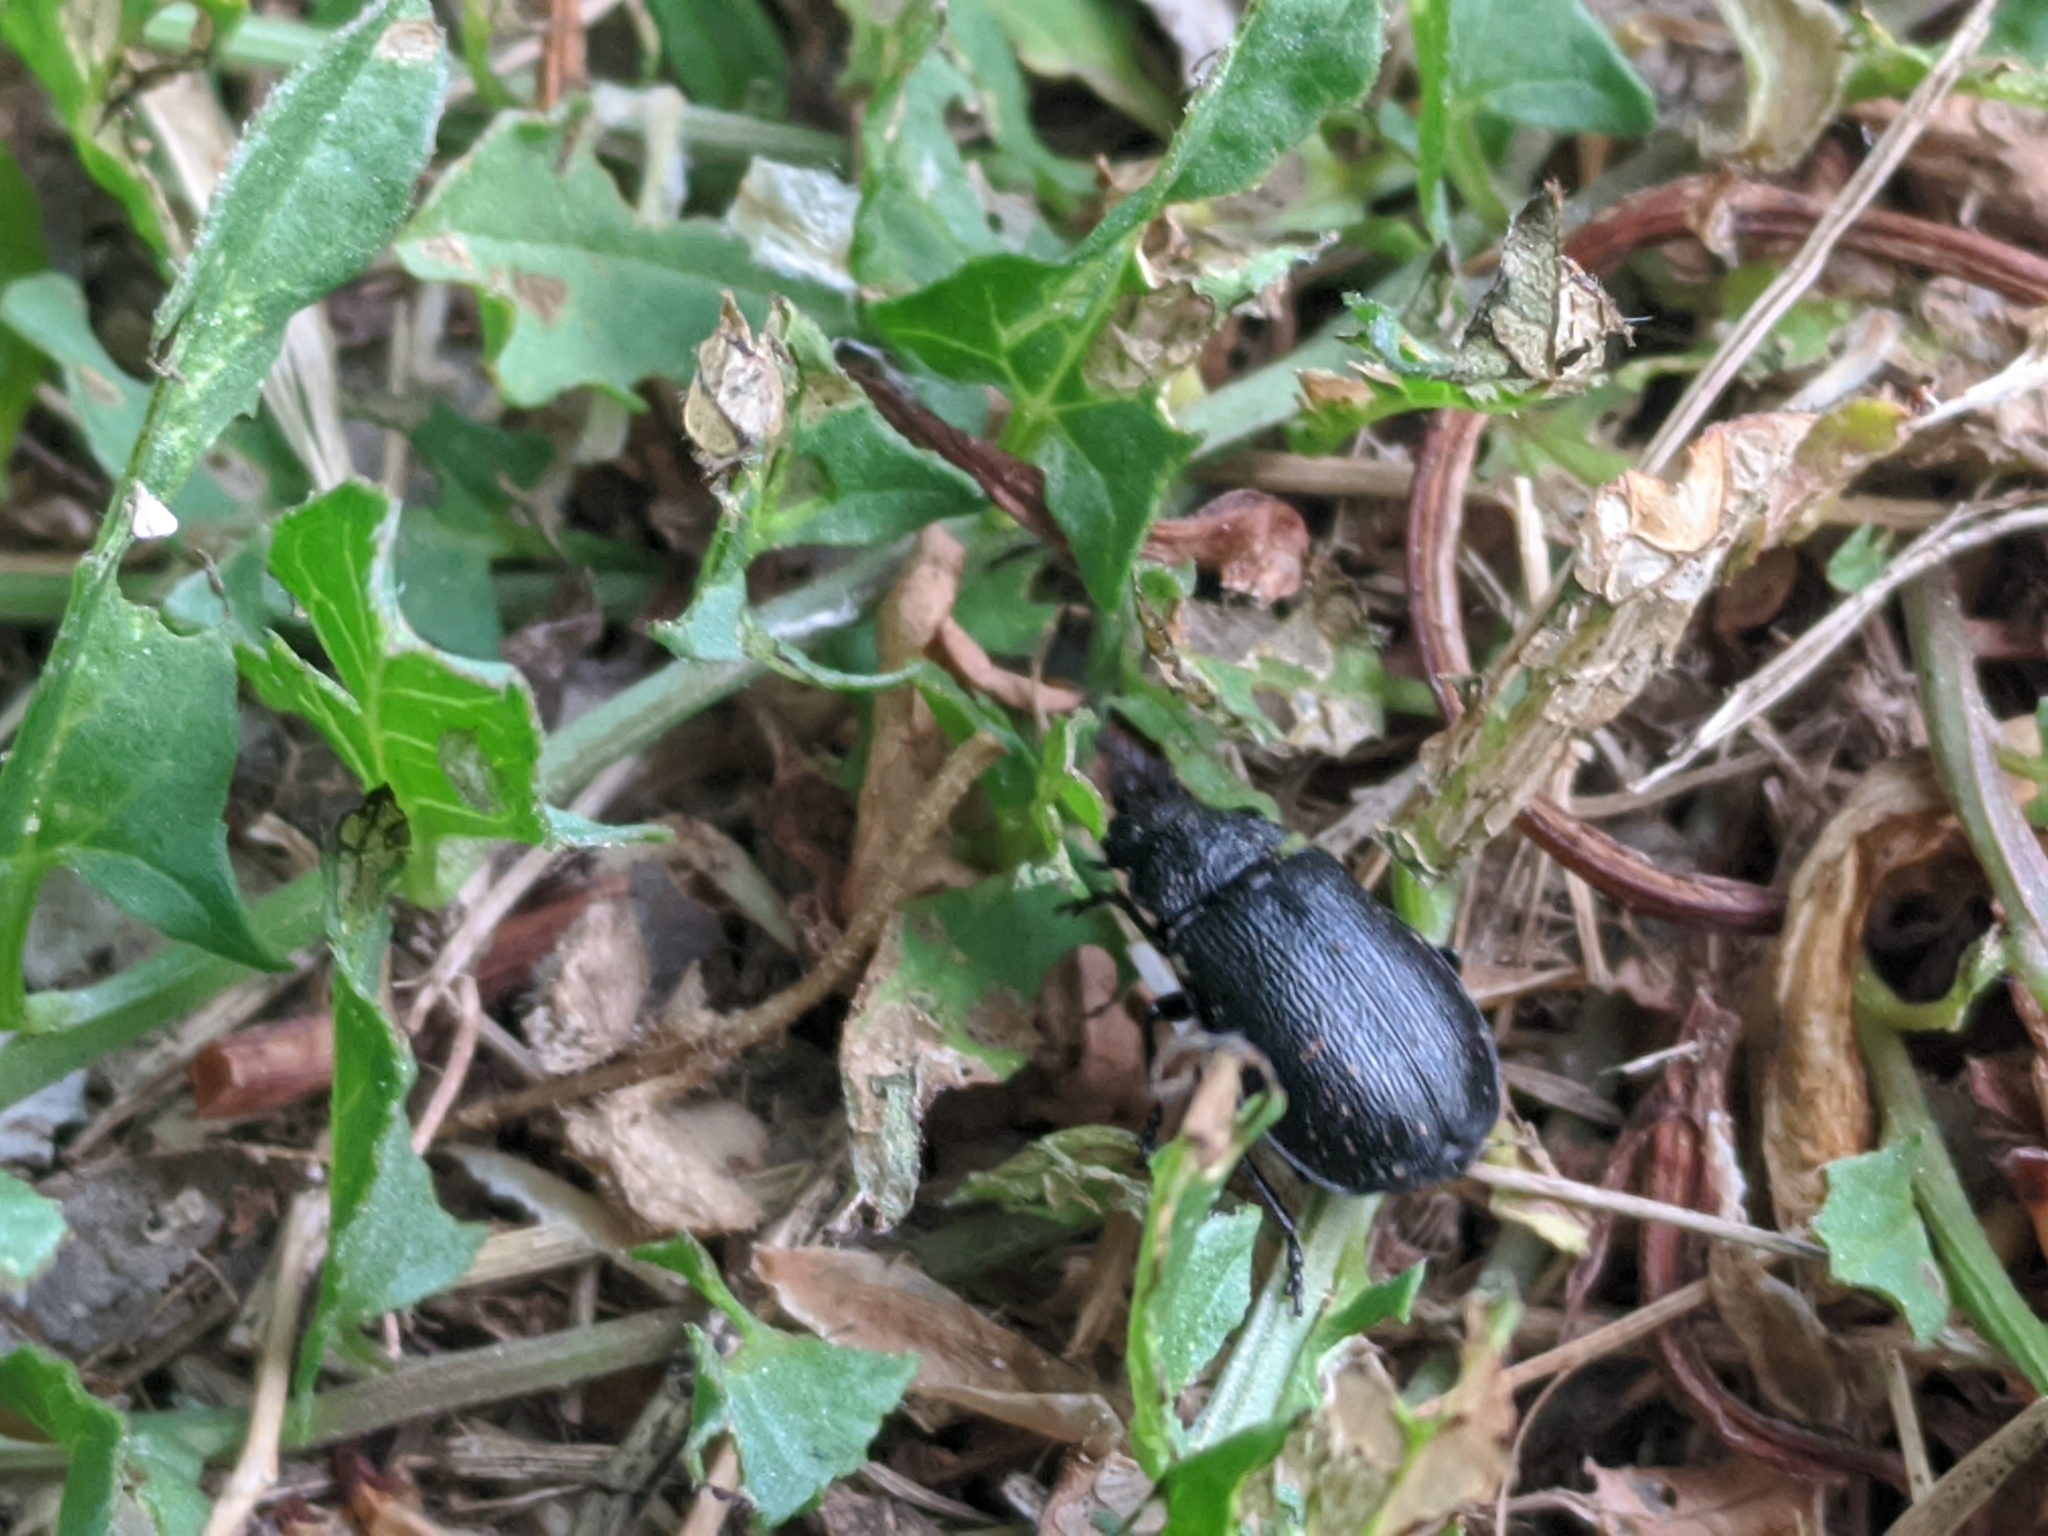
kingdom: Animalia
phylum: Arthropoda
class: Insecta
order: Coleoptera
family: Chrysomelidae
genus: Galeruca
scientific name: Galeruca tanaceti
